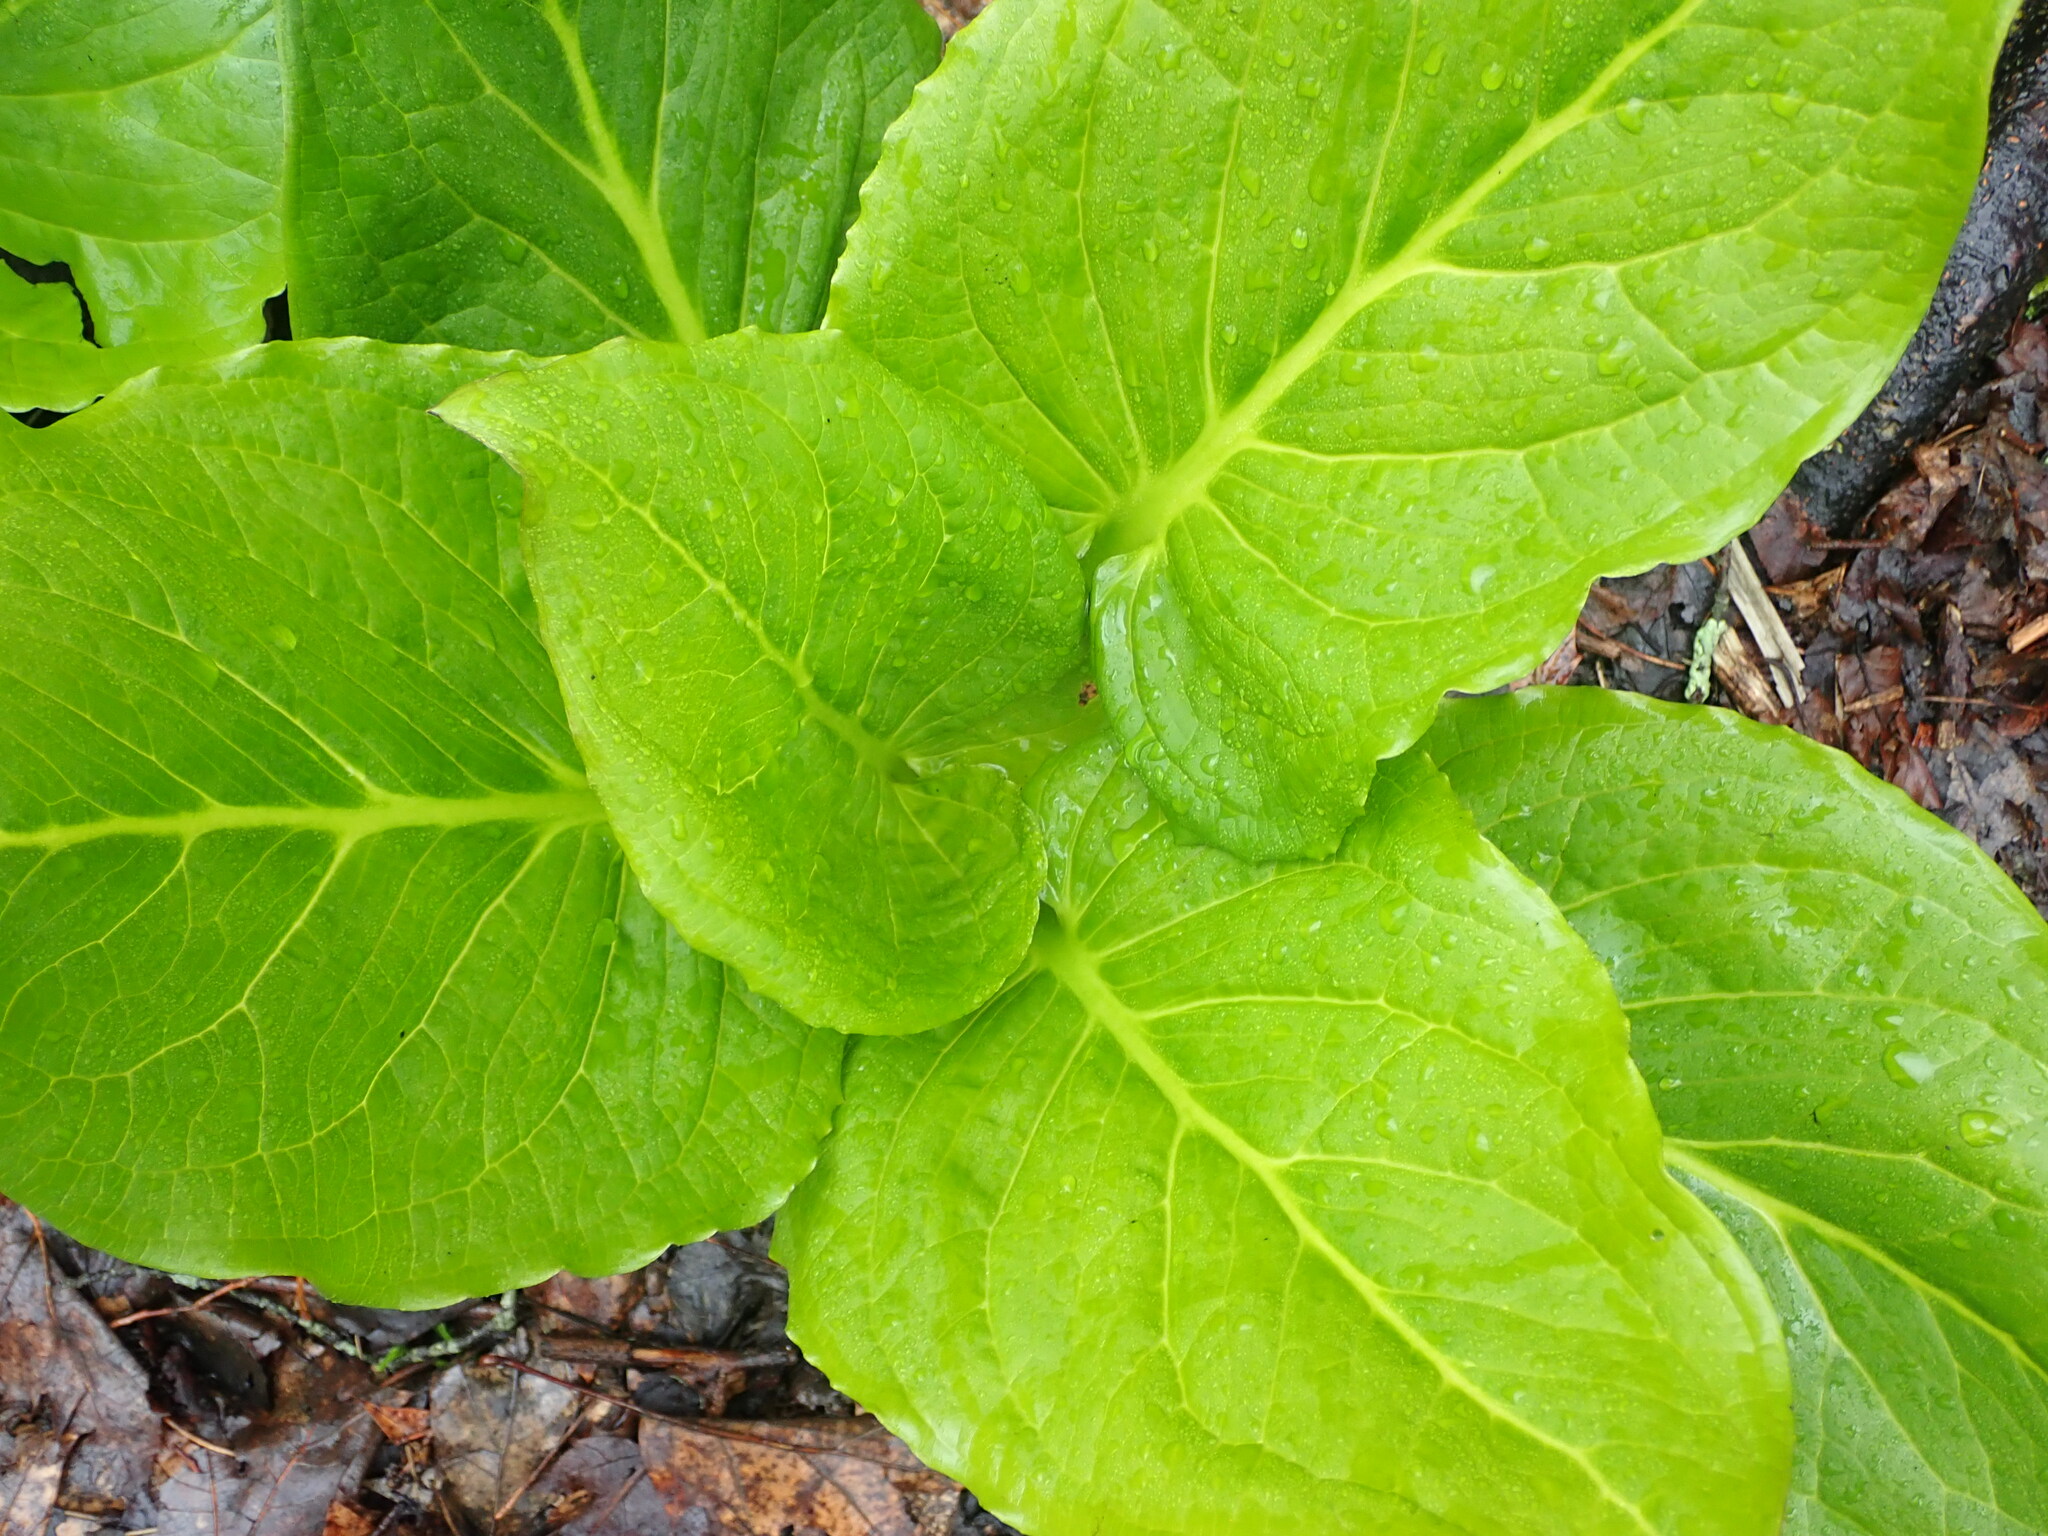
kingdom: Plantae
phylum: Tracheophyta
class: Liliopsida
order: Alismatales
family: Araceae
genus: Symplocarpus
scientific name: Symplocarpus foetidus
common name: Eastern skunk cabbage
